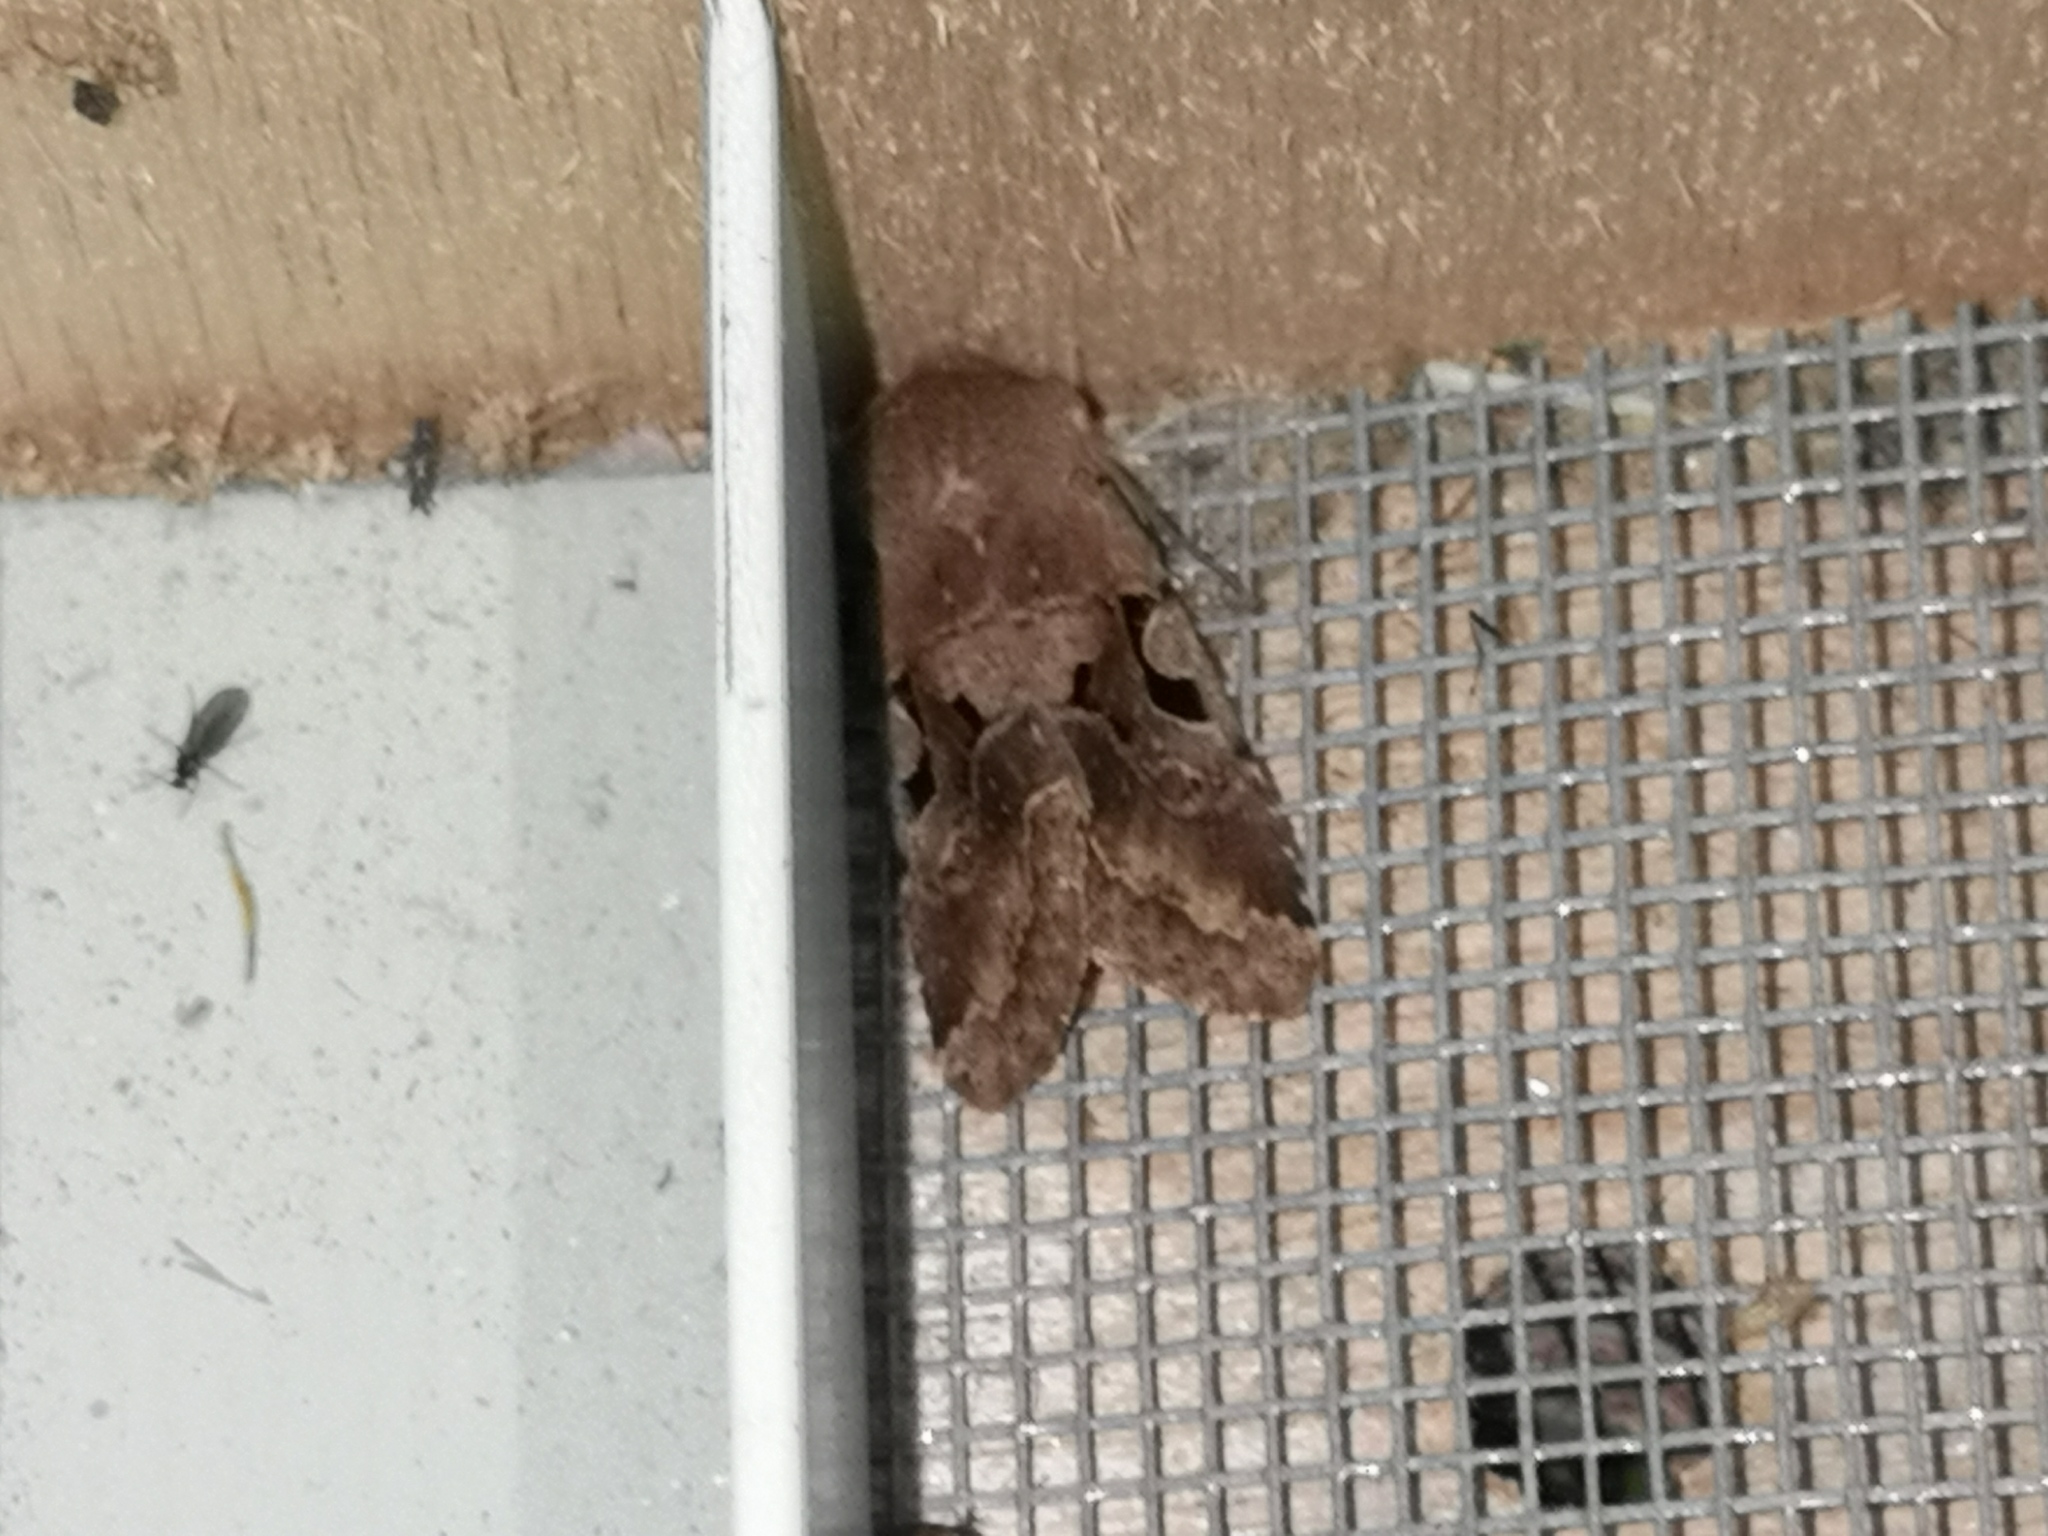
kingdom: Animalia
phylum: Arthropoda
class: Insecta
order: Lepidoptera
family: Noctuidae
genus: Orthosia
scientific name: Orthosia gothica
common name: Hebrew character
